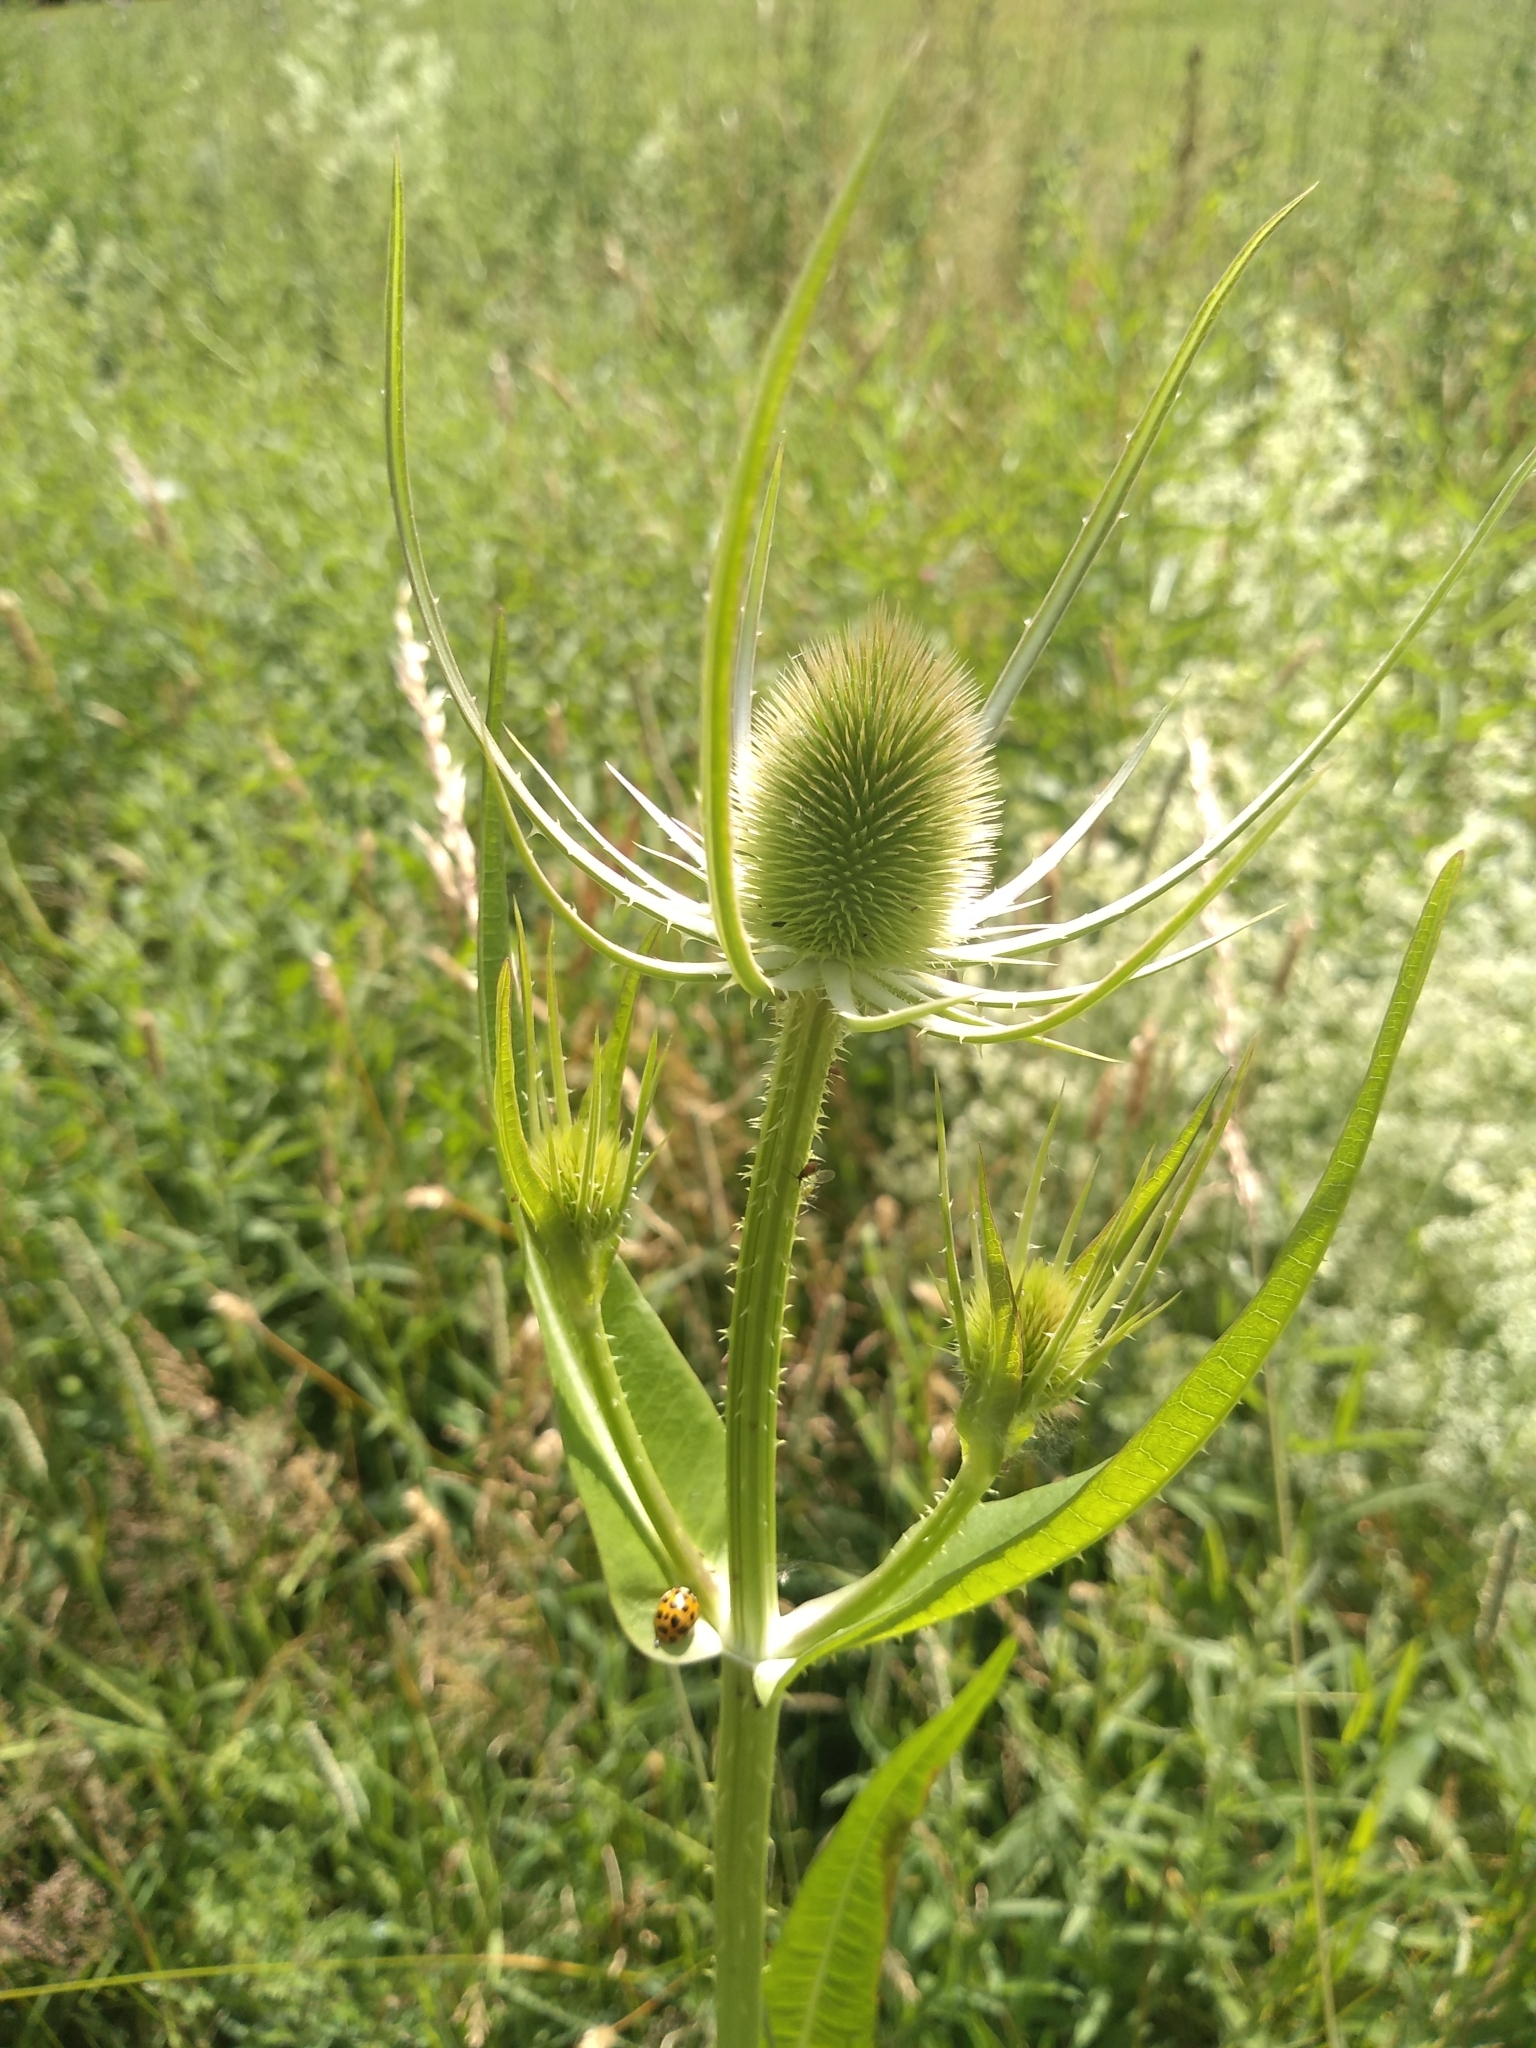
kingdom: Plantae
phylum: Tracheophyta
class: Magnoliopsida
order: Dipsacales
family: Caprifoliaceae
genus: Dipsacus
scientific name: Dipsacus fullonum
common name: Teasel
